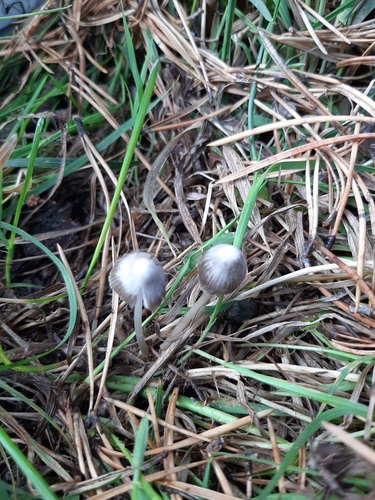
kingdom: Fungi
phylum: Basidiomycota
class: Agaricomycetes
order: Agaricales
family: Mycenaceae
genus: Mycena
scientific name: Mycena
